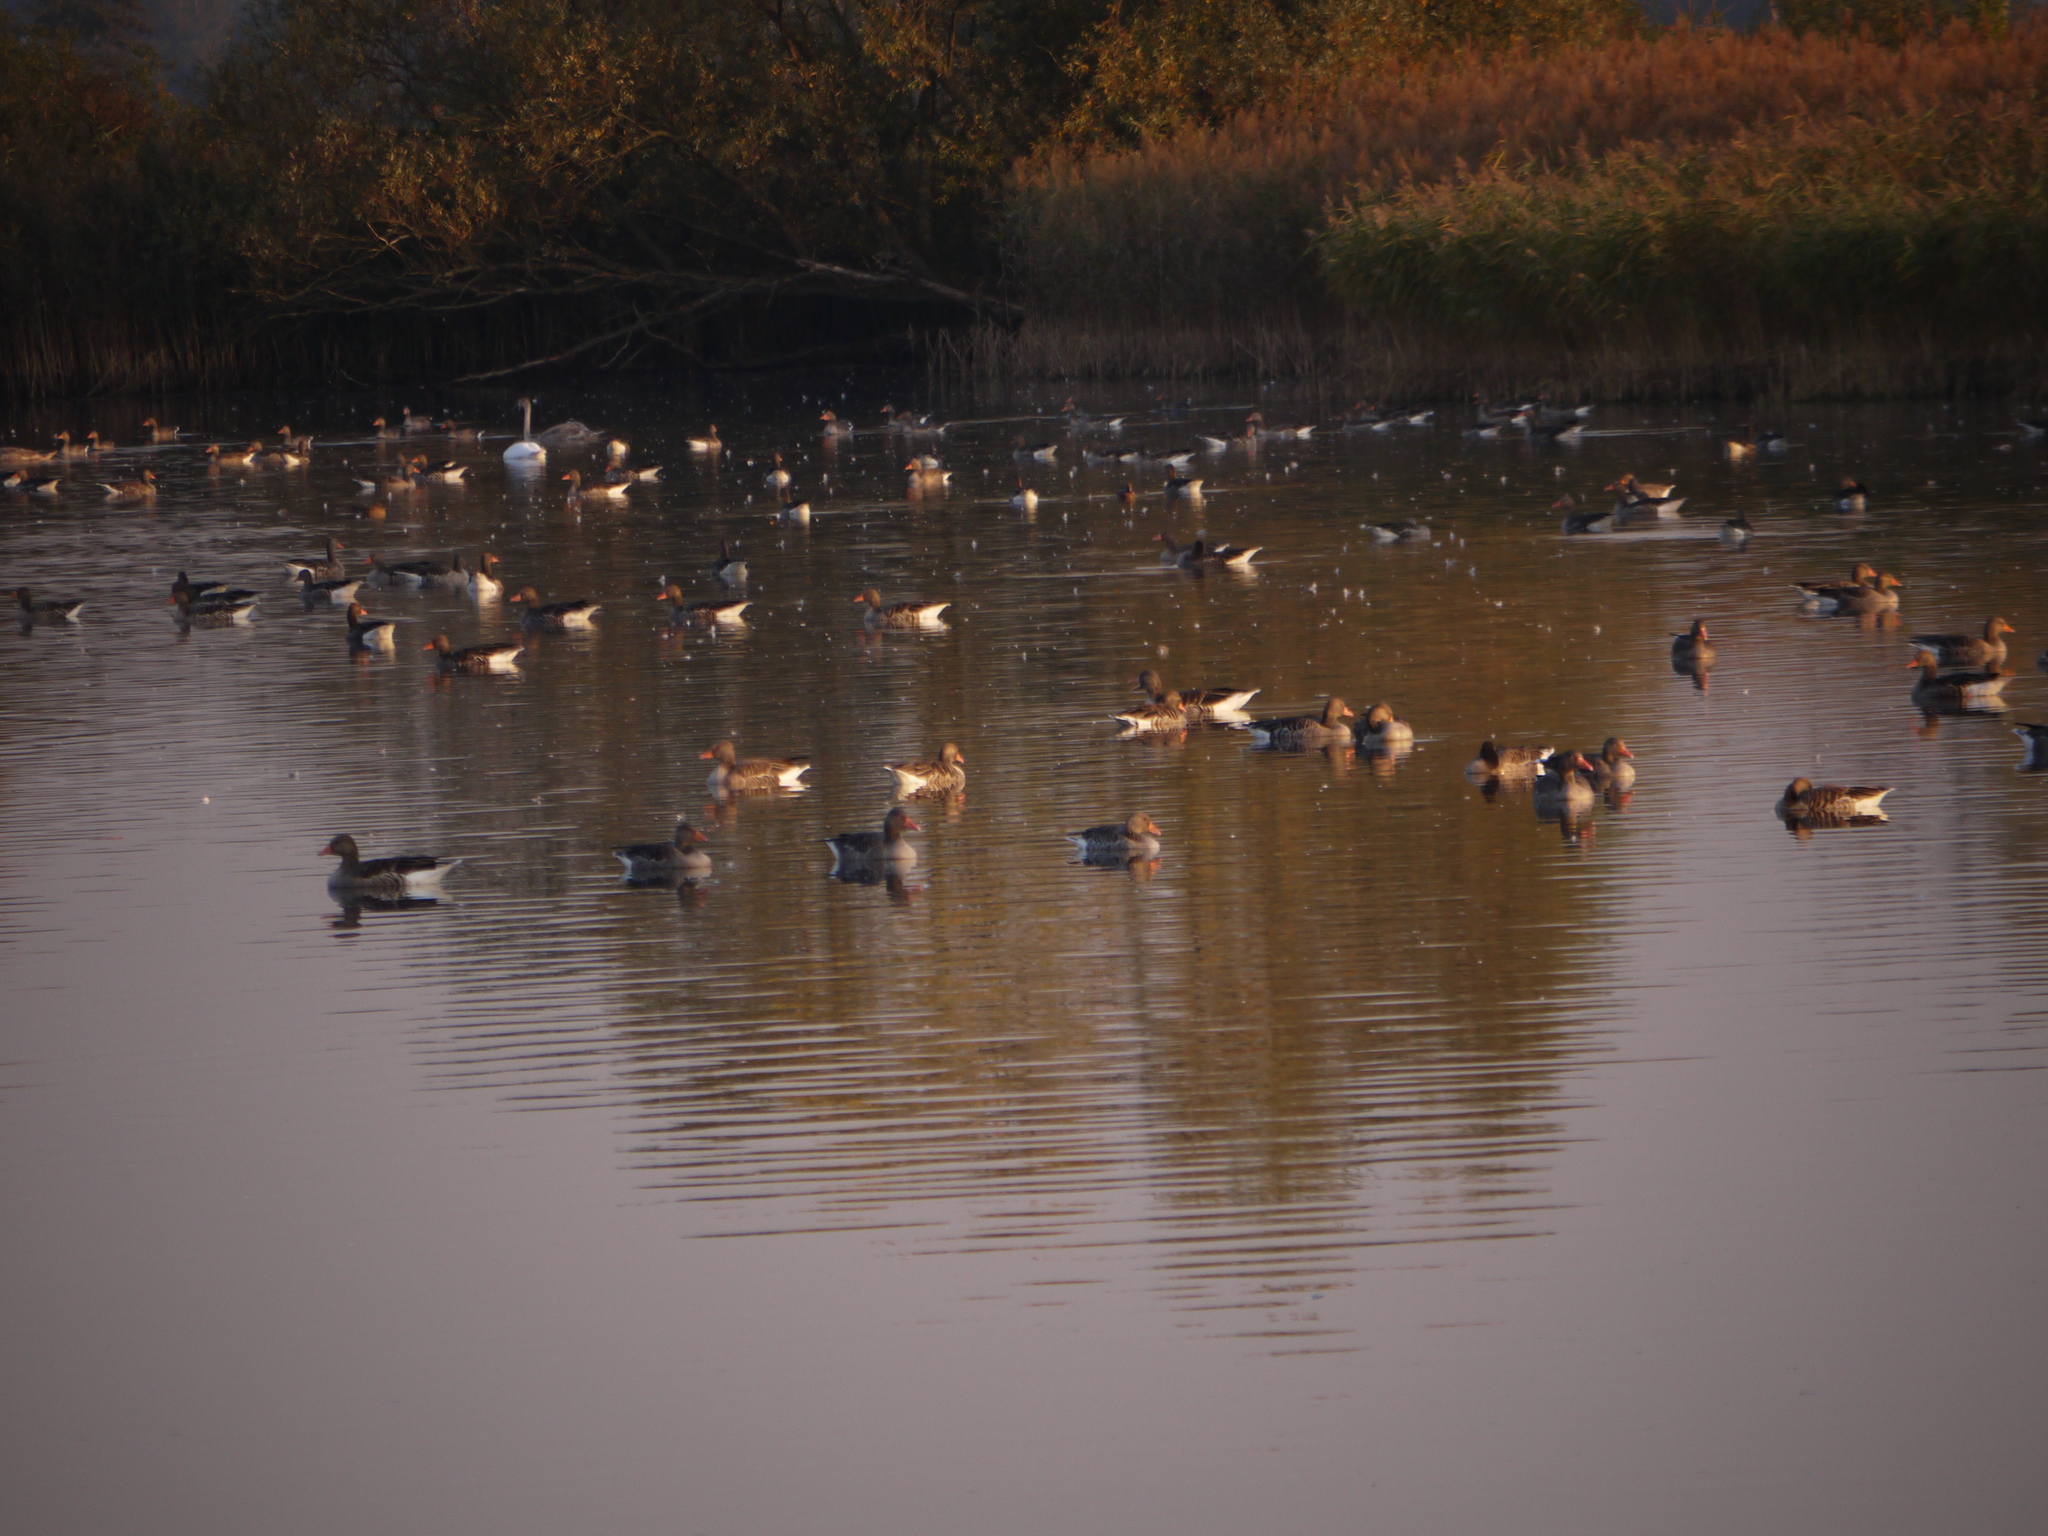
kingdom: Animalia
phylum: Chordata
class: Aves
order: Anseriformes
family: Anatidae
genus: Anser
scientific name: Anser anser
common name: Greylag goose
